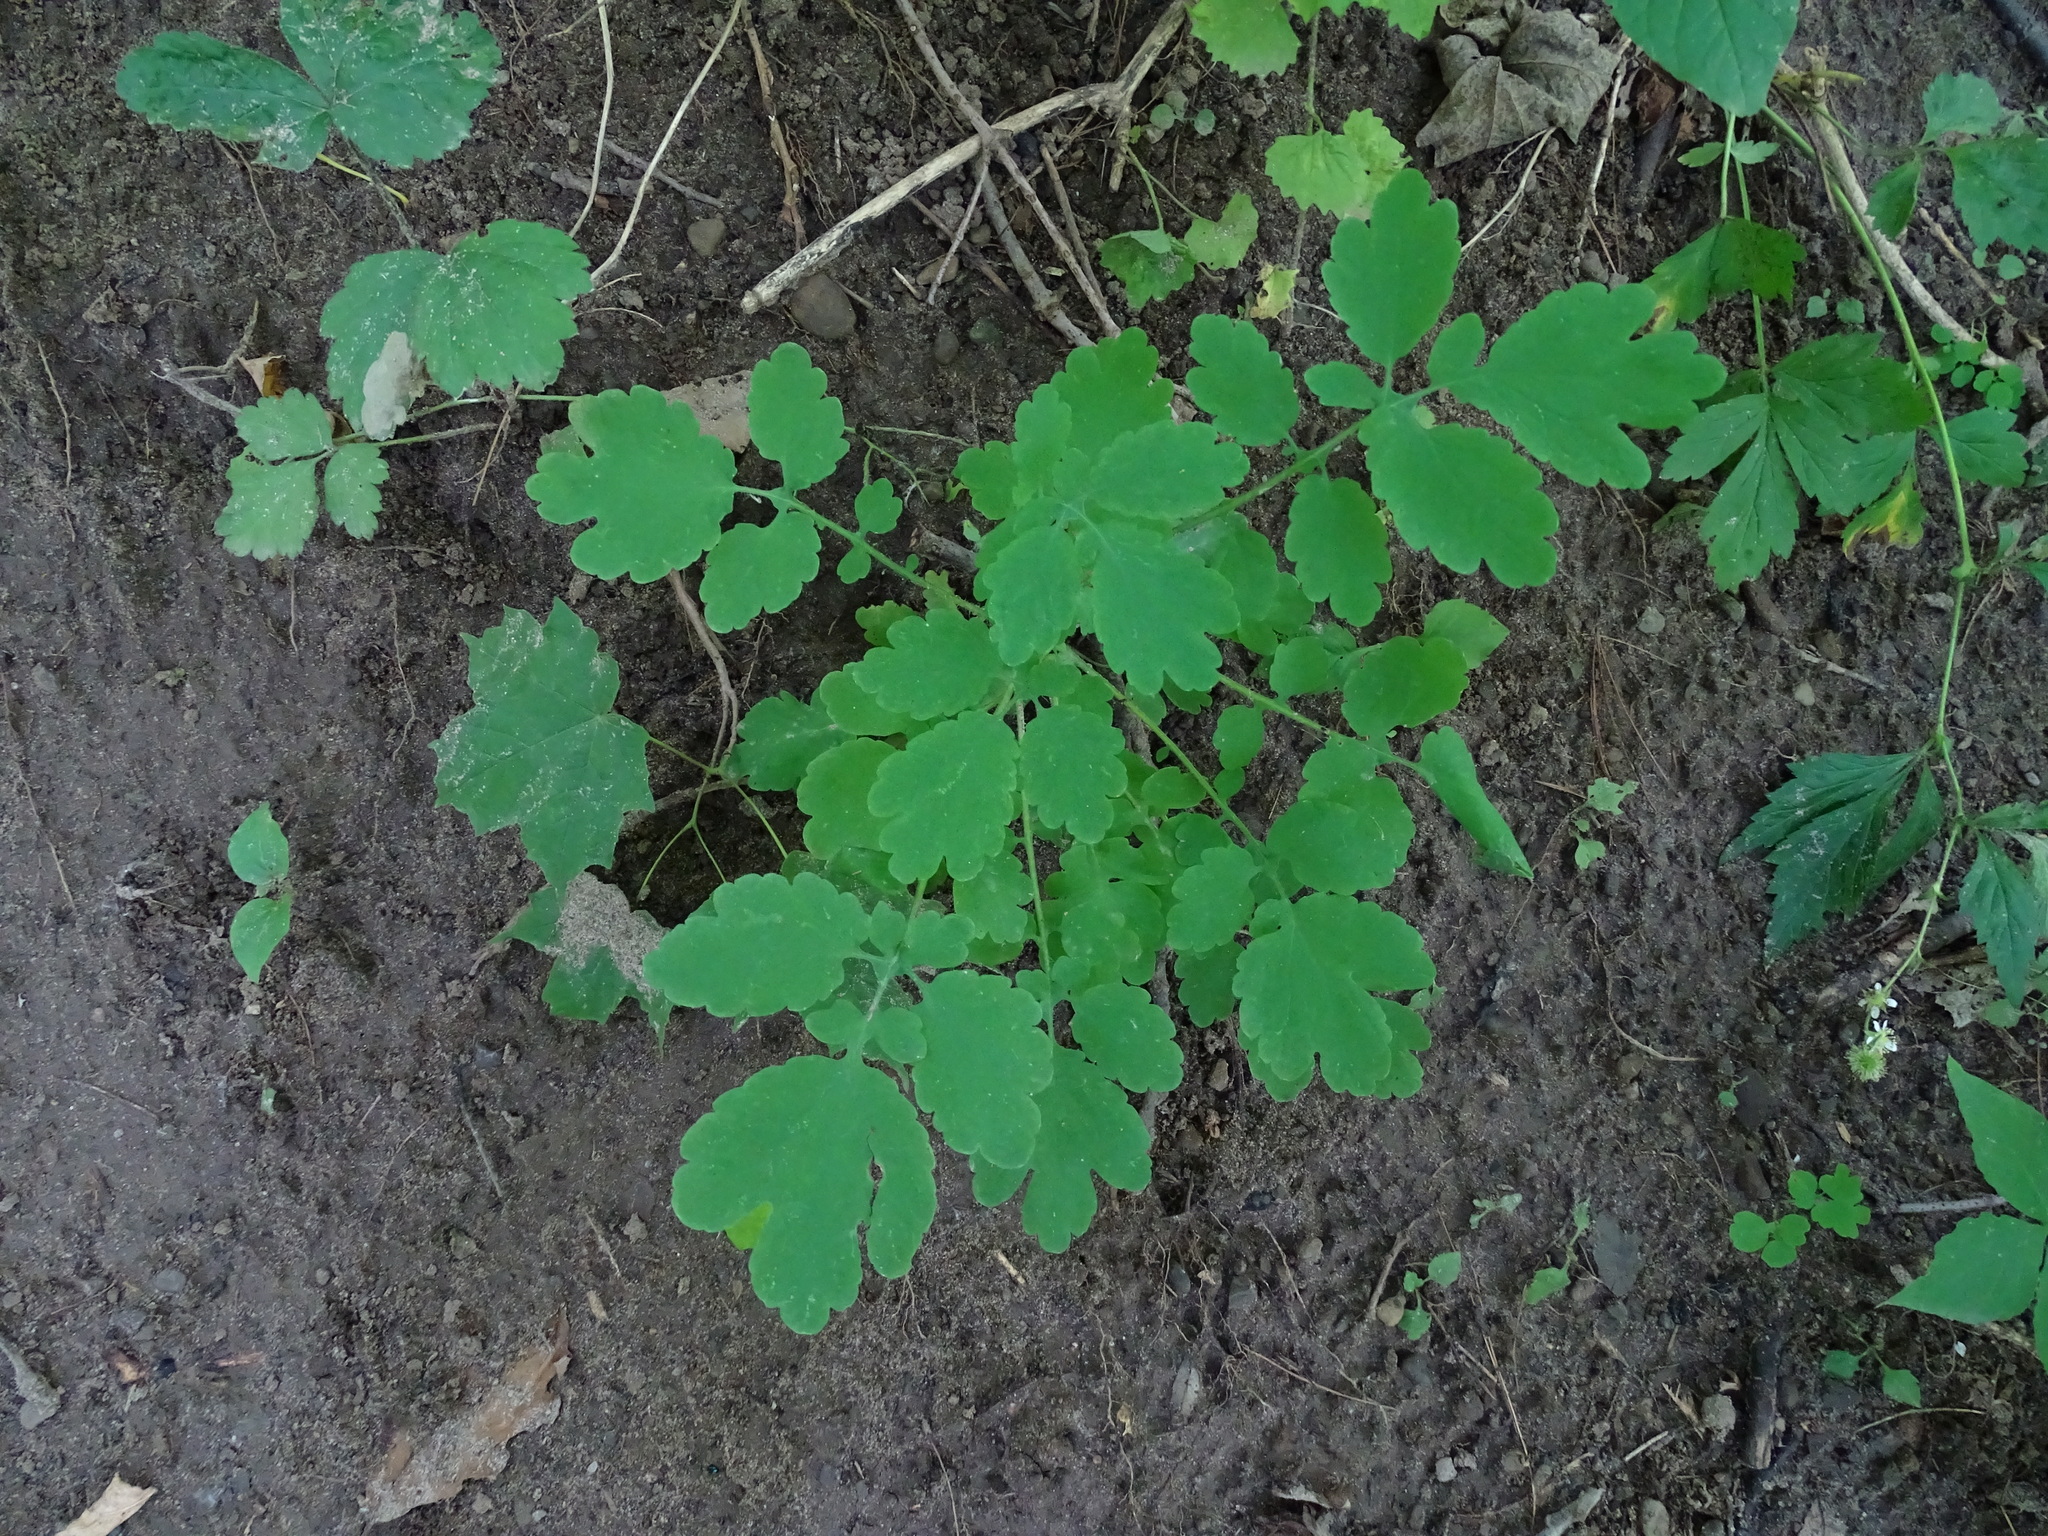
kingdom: Plantae
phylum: Tracheophyta
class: Magnoliopsida
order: Ranunculales
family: Papaveraceae
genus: Chelidonium
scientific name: Chelidonium majus
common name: Greater celandine
